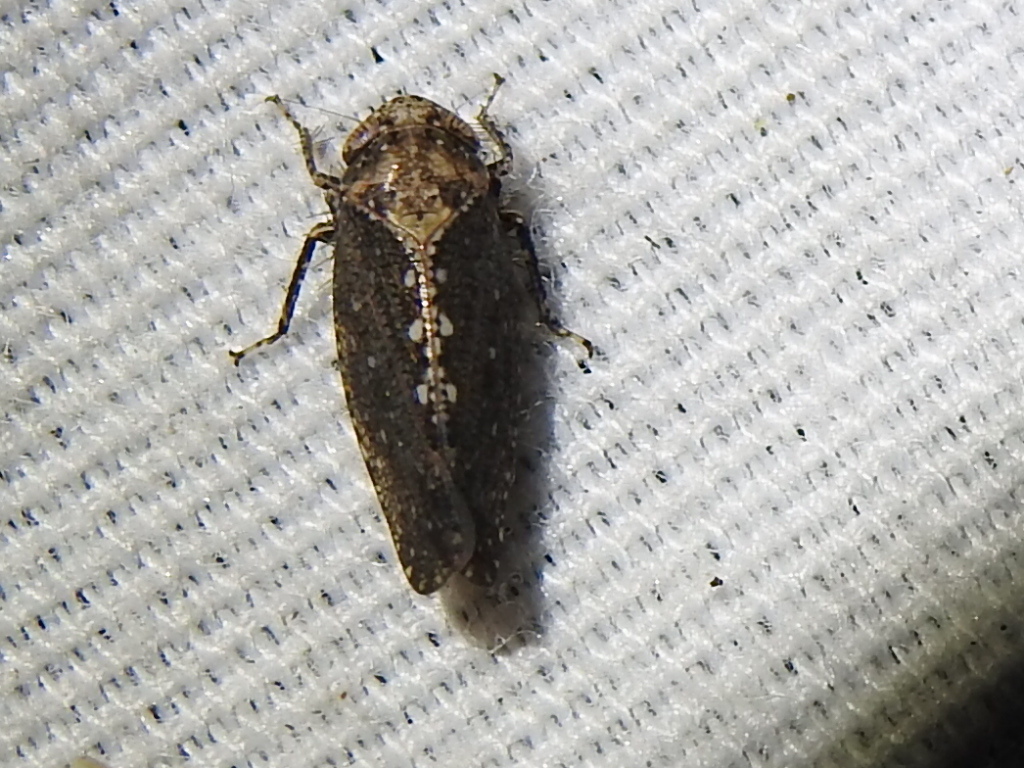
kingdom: Animalia
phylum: Arthropoda
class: Insecta
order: Hemiptera
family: Cicadellidae
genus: Excultanus
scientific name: Excultanus excultus
